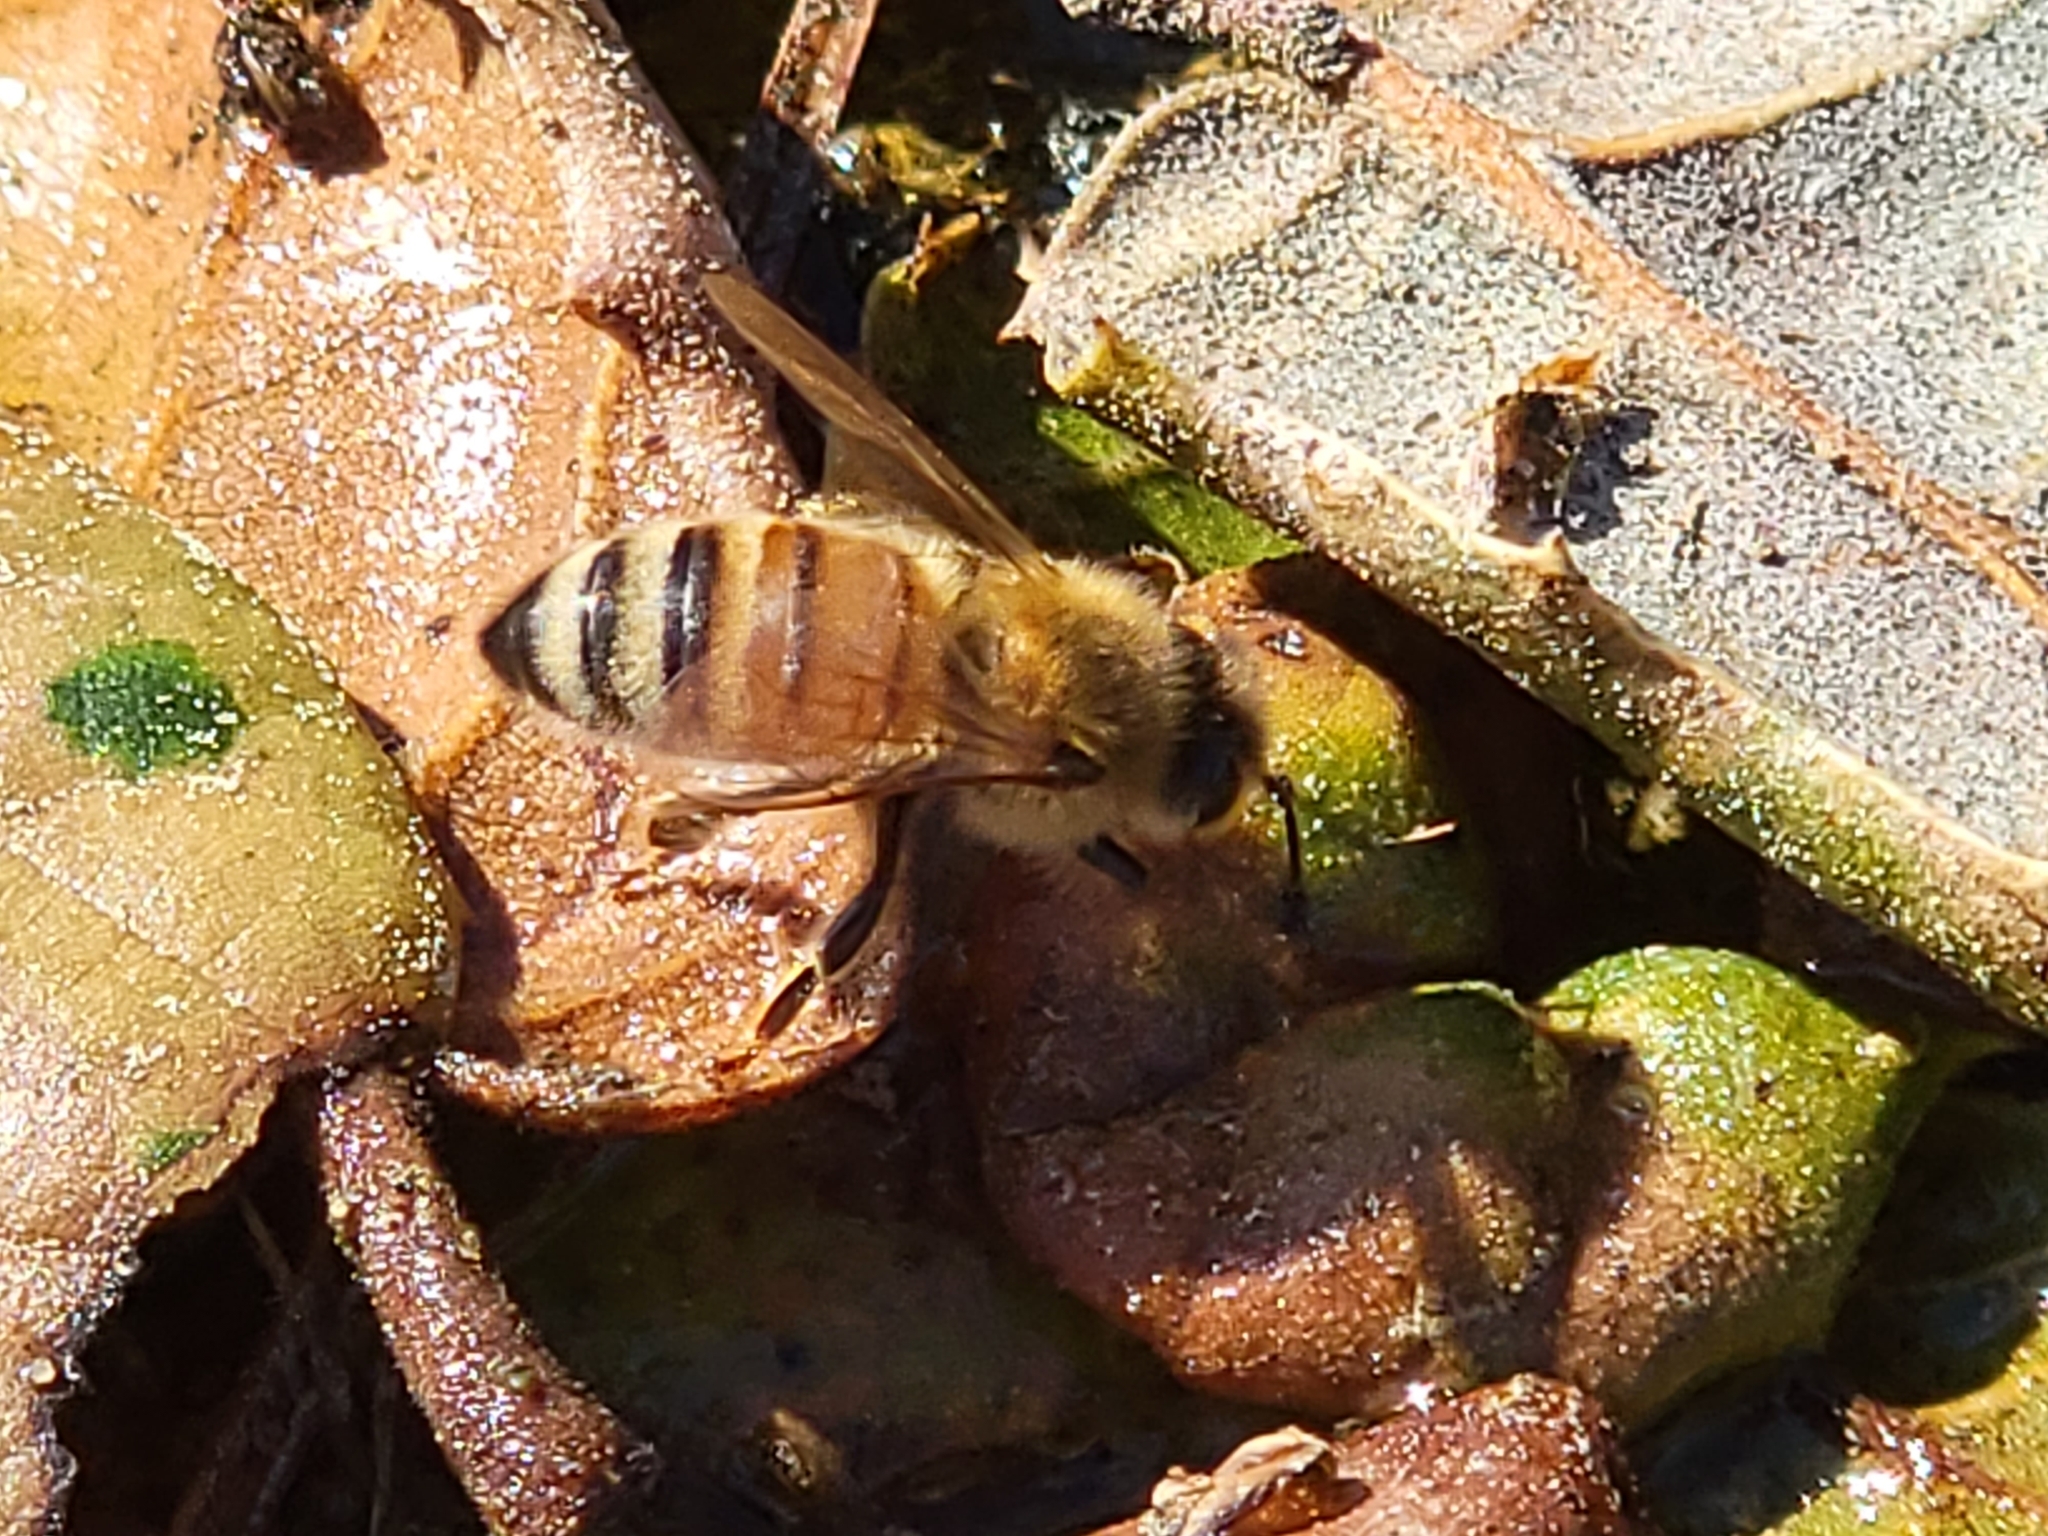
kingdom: Animalia
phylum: Arthropoda
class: Insecta
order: Hymenoptera
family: Apidae
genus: Apis
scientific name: Apis mellifera
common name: Honey bee
